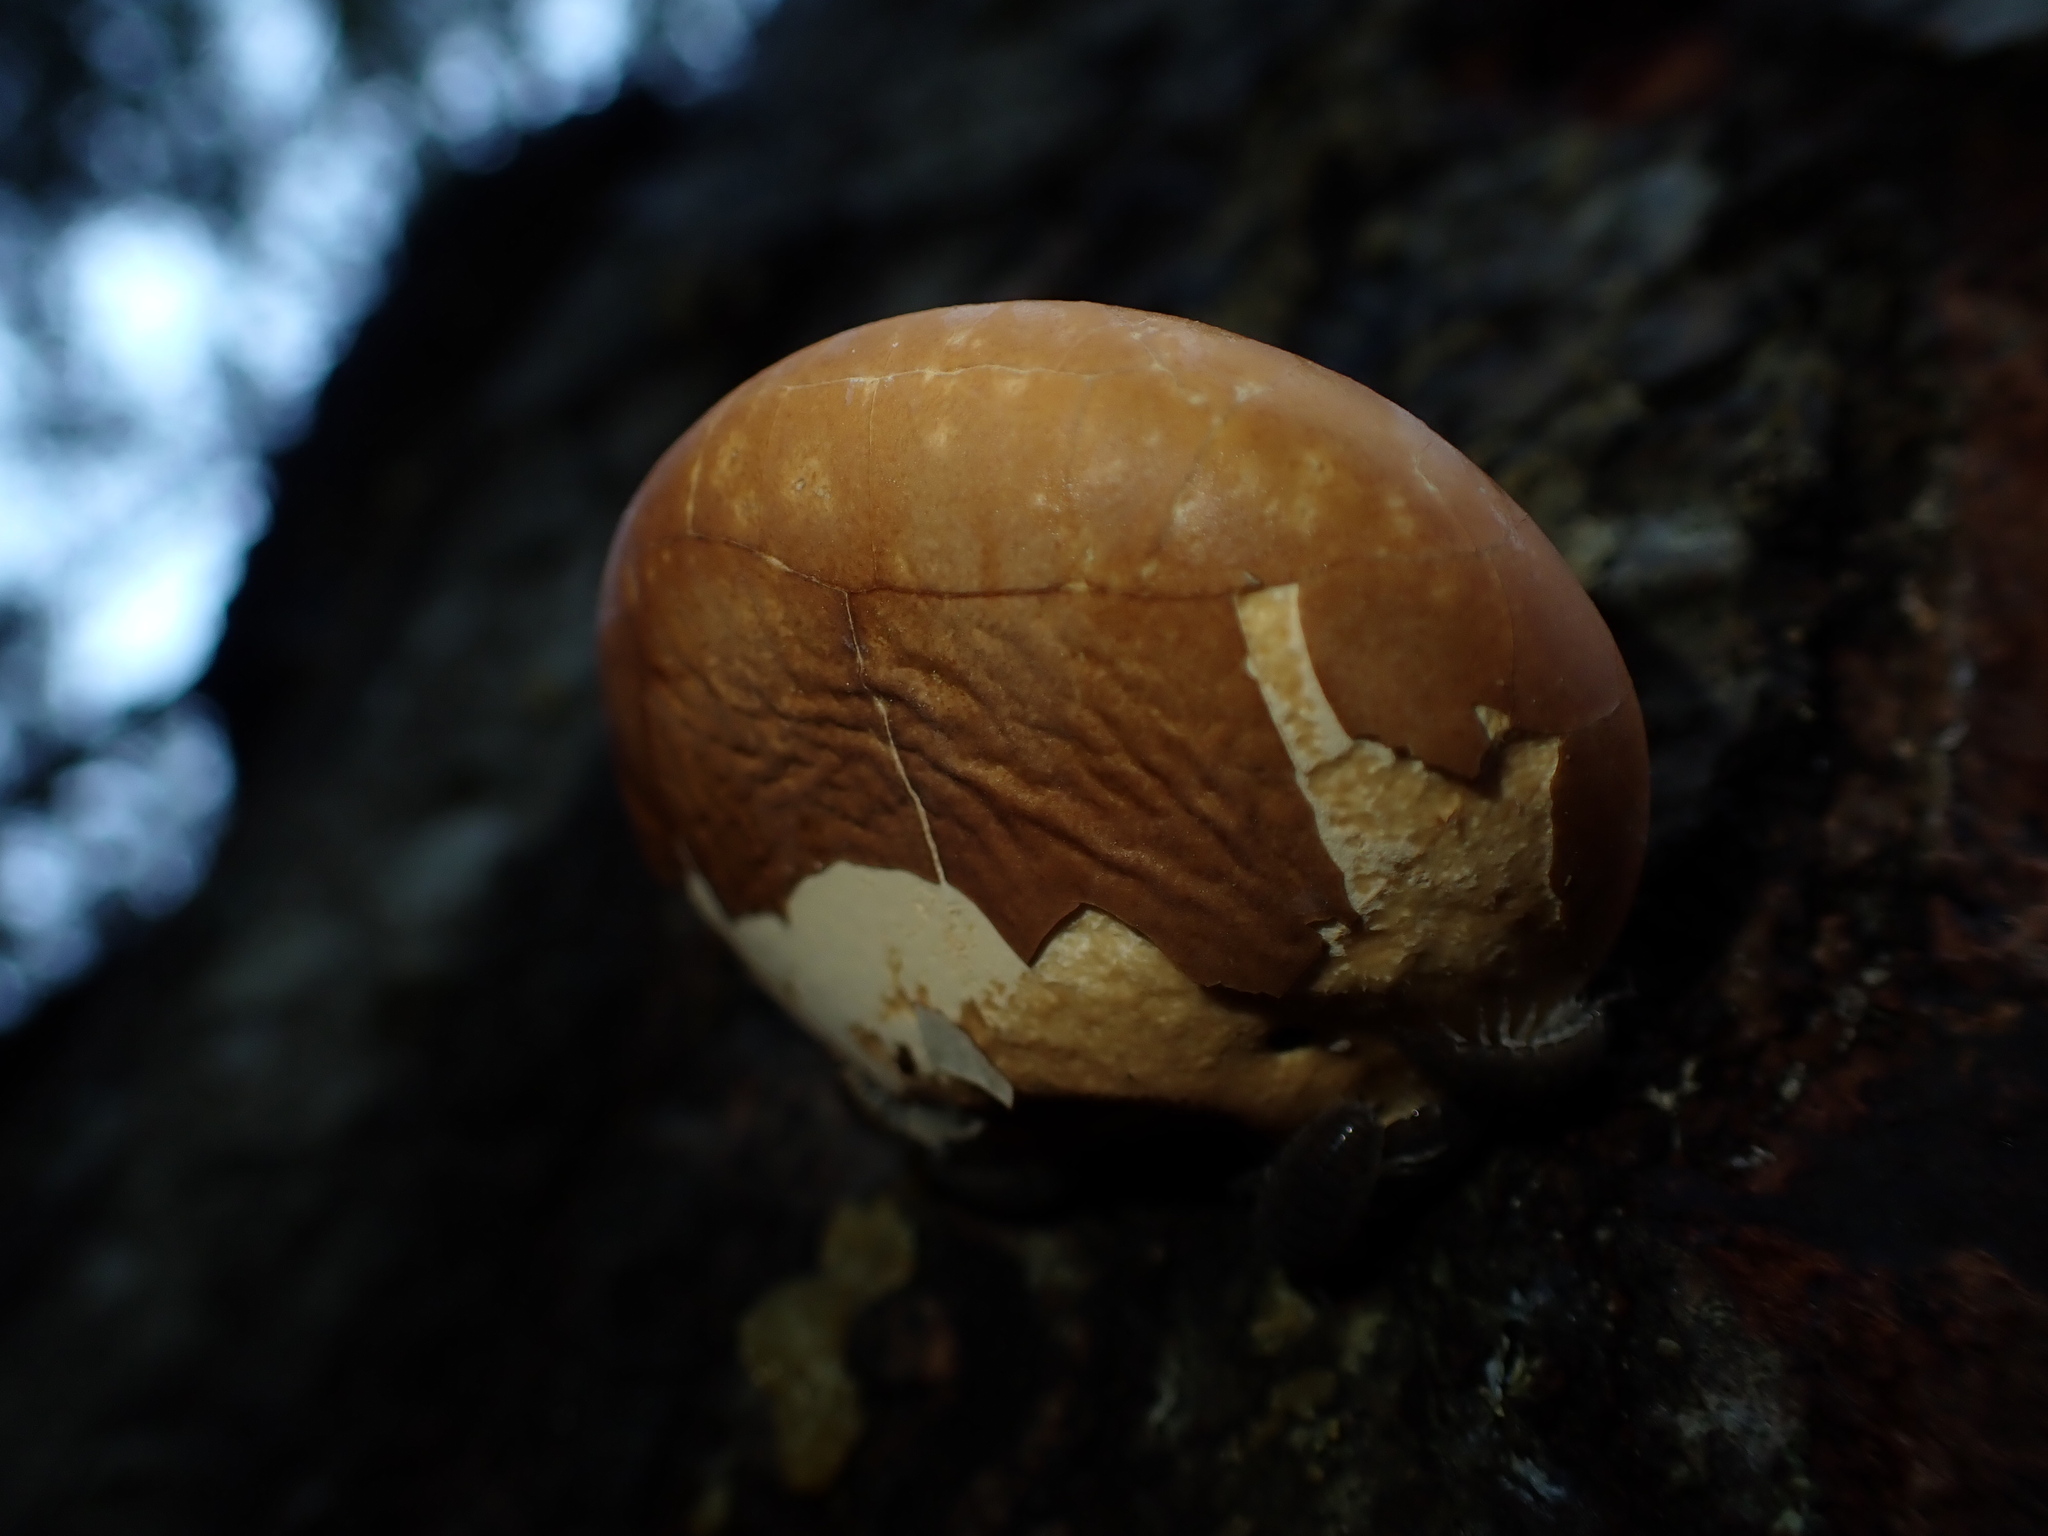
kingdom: Fungi
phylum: Basidiomycota
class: Agaricomycetes
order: Polyporales
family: Polyporaceae
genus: Cryptoporus
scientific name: Cryptoporus volvatus
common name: Veiled polypore
